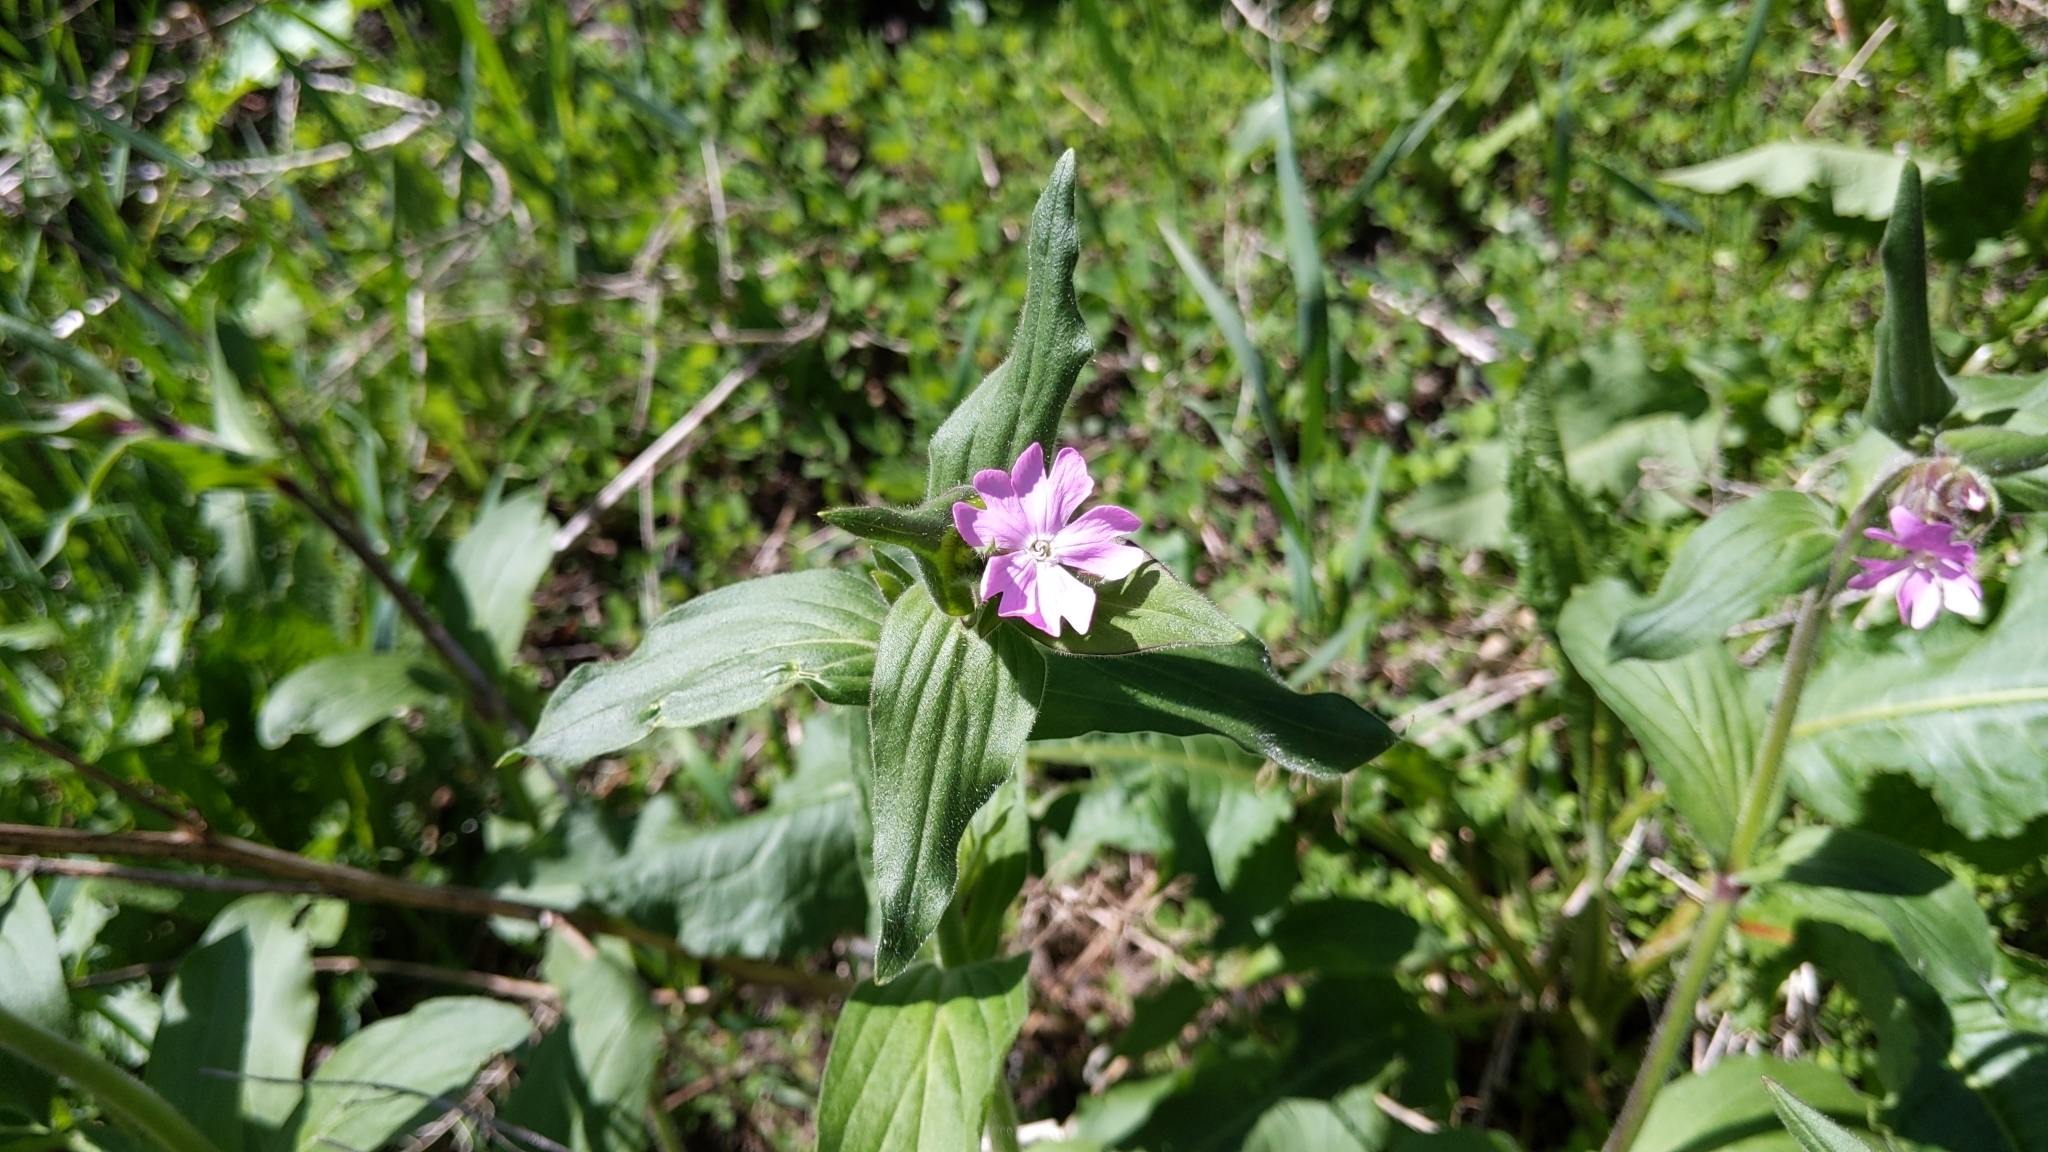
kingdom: Plantae
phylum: Tracheophyta
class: Magnoliopsida
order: Caryophyllales
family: Caryophyllaceae
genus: Silene
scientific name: Silene dioica
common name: Red campion
